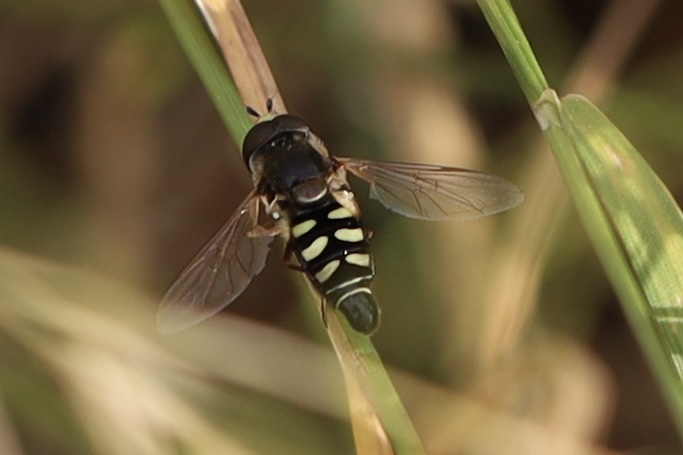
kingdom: Animalia
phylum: Arthropoda
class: Insecta
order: Diptera
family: Syrphidae
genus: Eupeodes
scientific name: Eupeodes volucris
